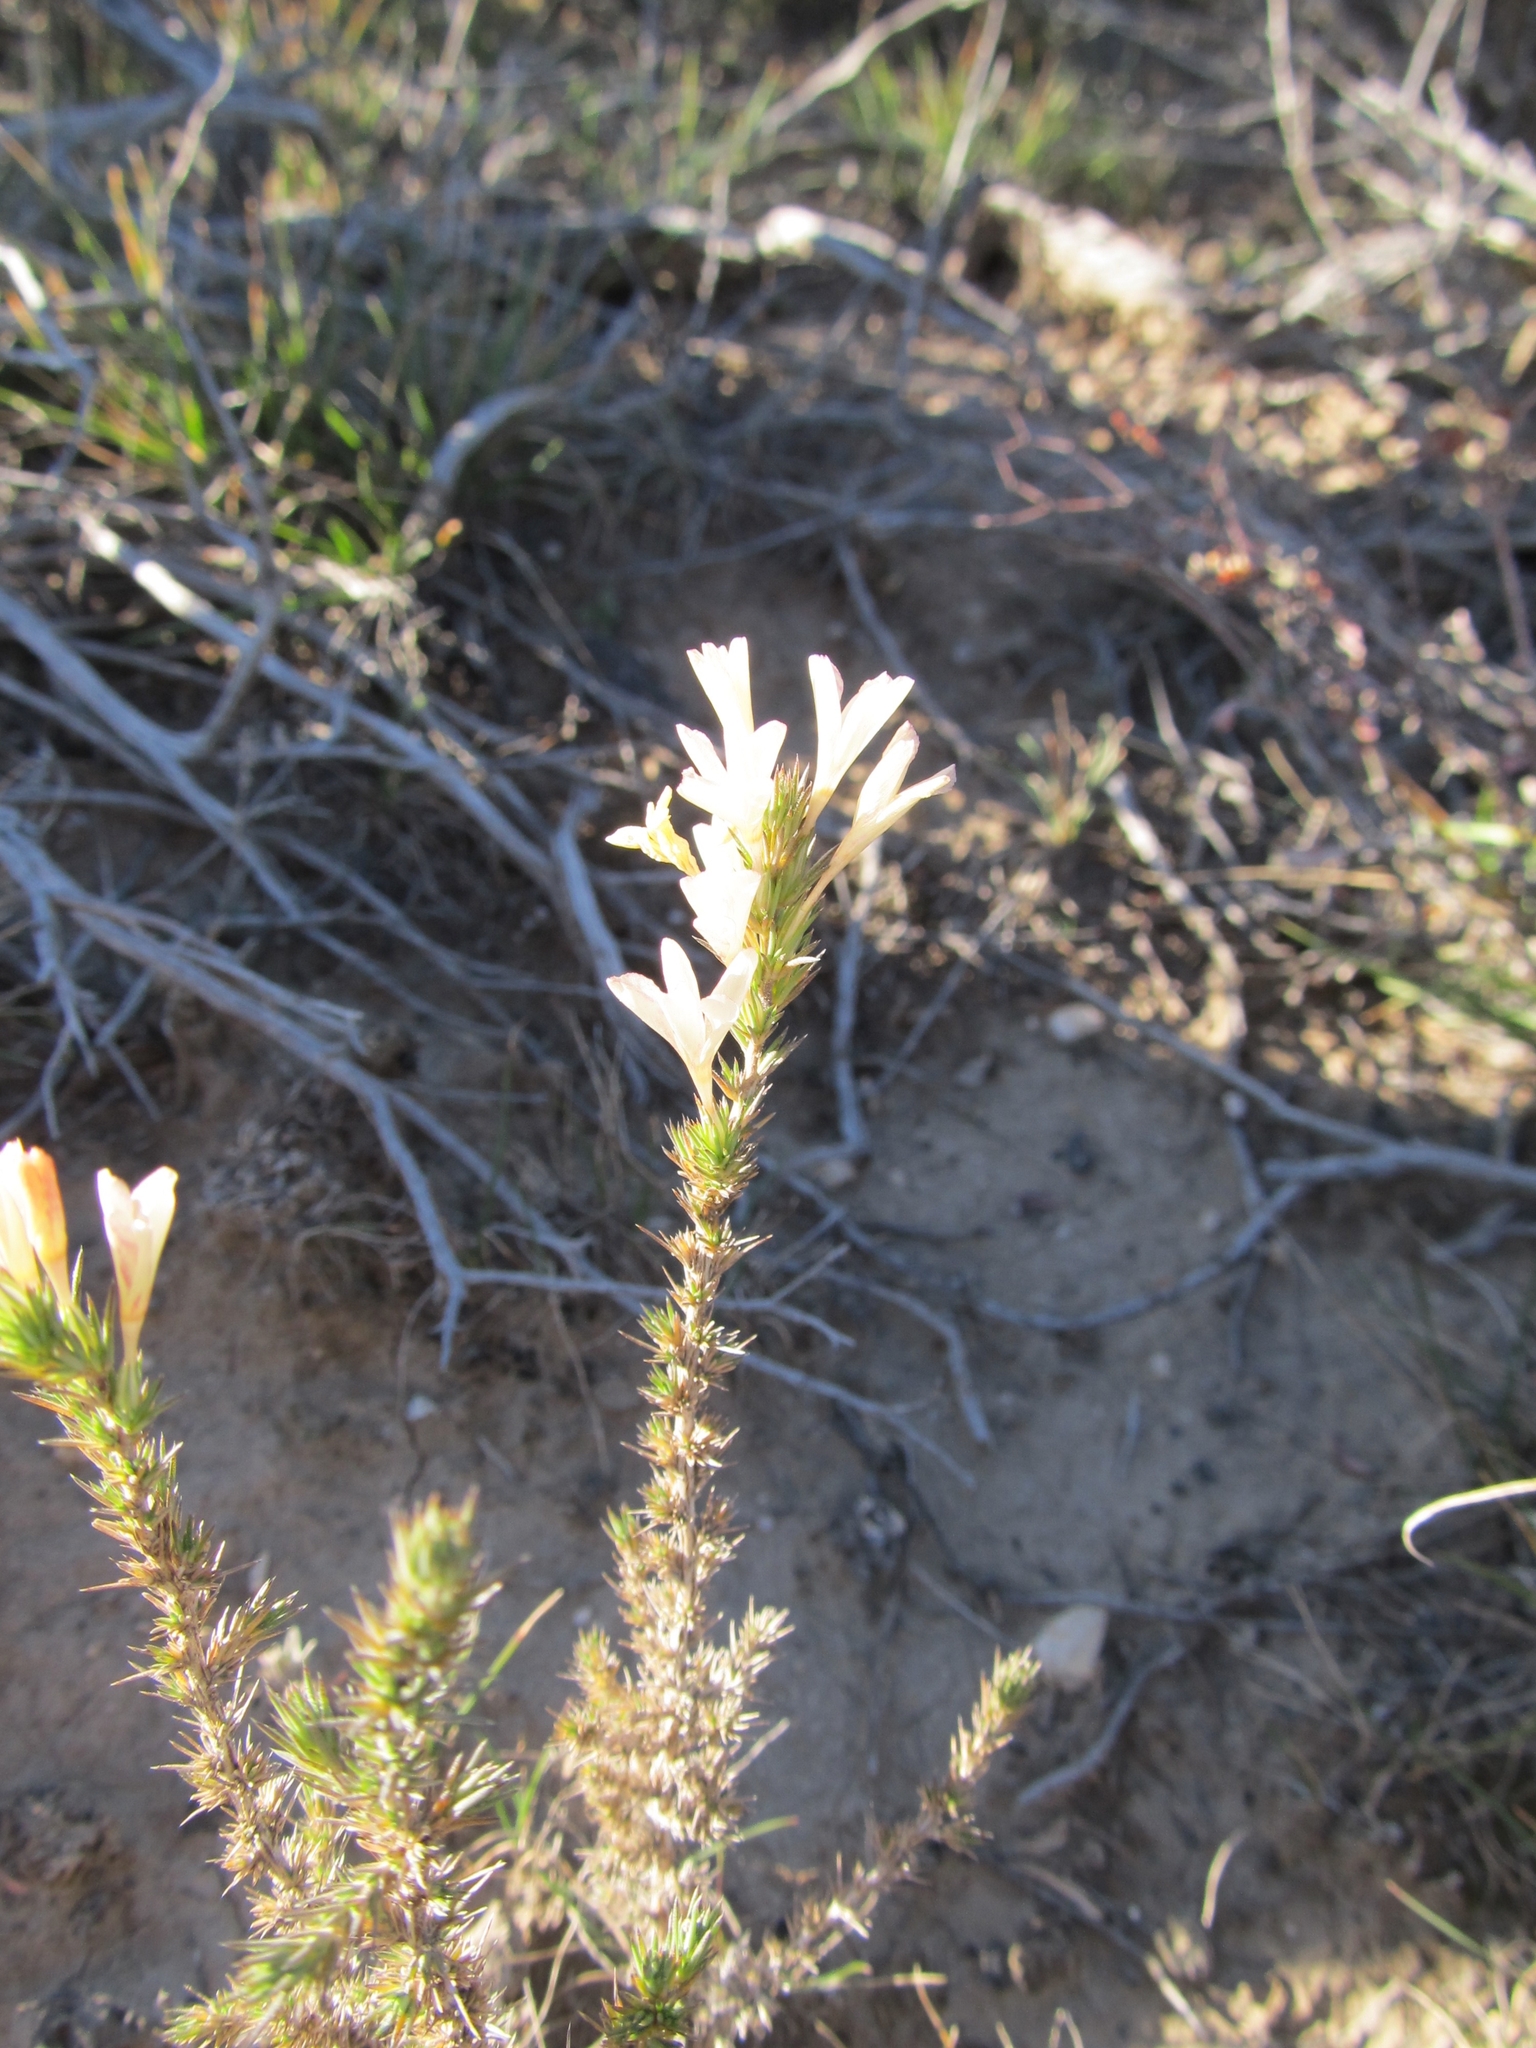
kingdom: Plantae
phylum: Tracheophyta
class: Magnoliopsida
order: Ericales
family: Polemoniaceae
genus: Linanthus
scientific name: Linanthus pungens
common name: Granite prickly phlox
